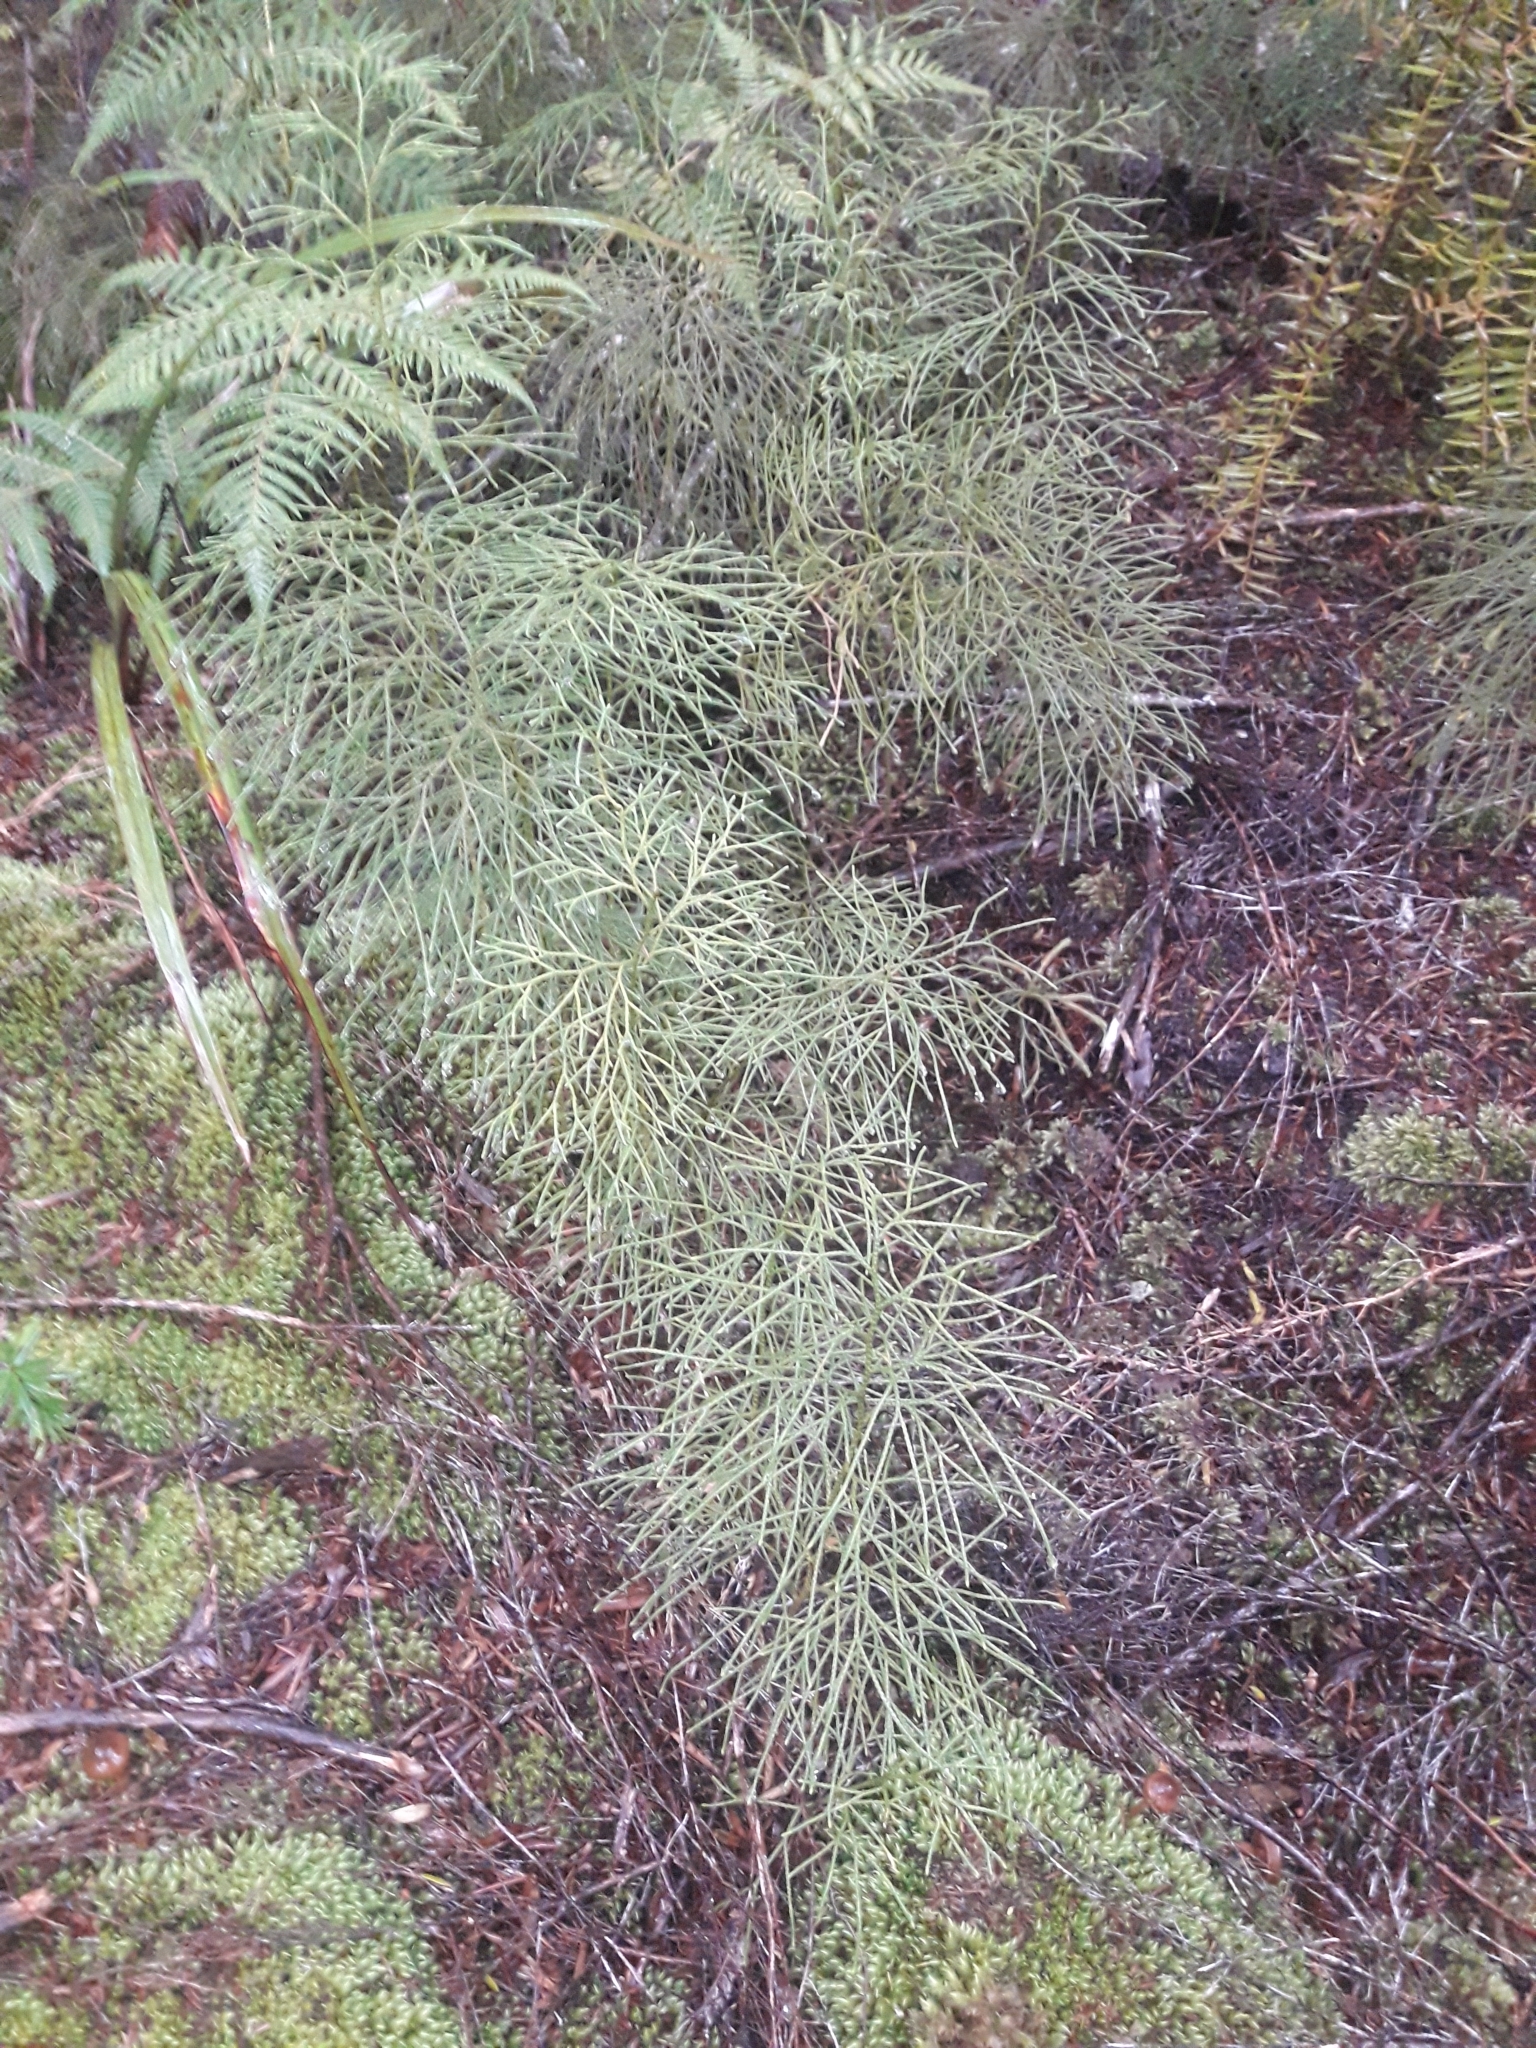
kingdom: Plantae
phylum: Tracheophyta
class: Lycopodiopsida
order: Lycopodiales
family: Lycopodiaceae
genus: Pseudolycopodium
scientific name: Pseudolycopodium densum
